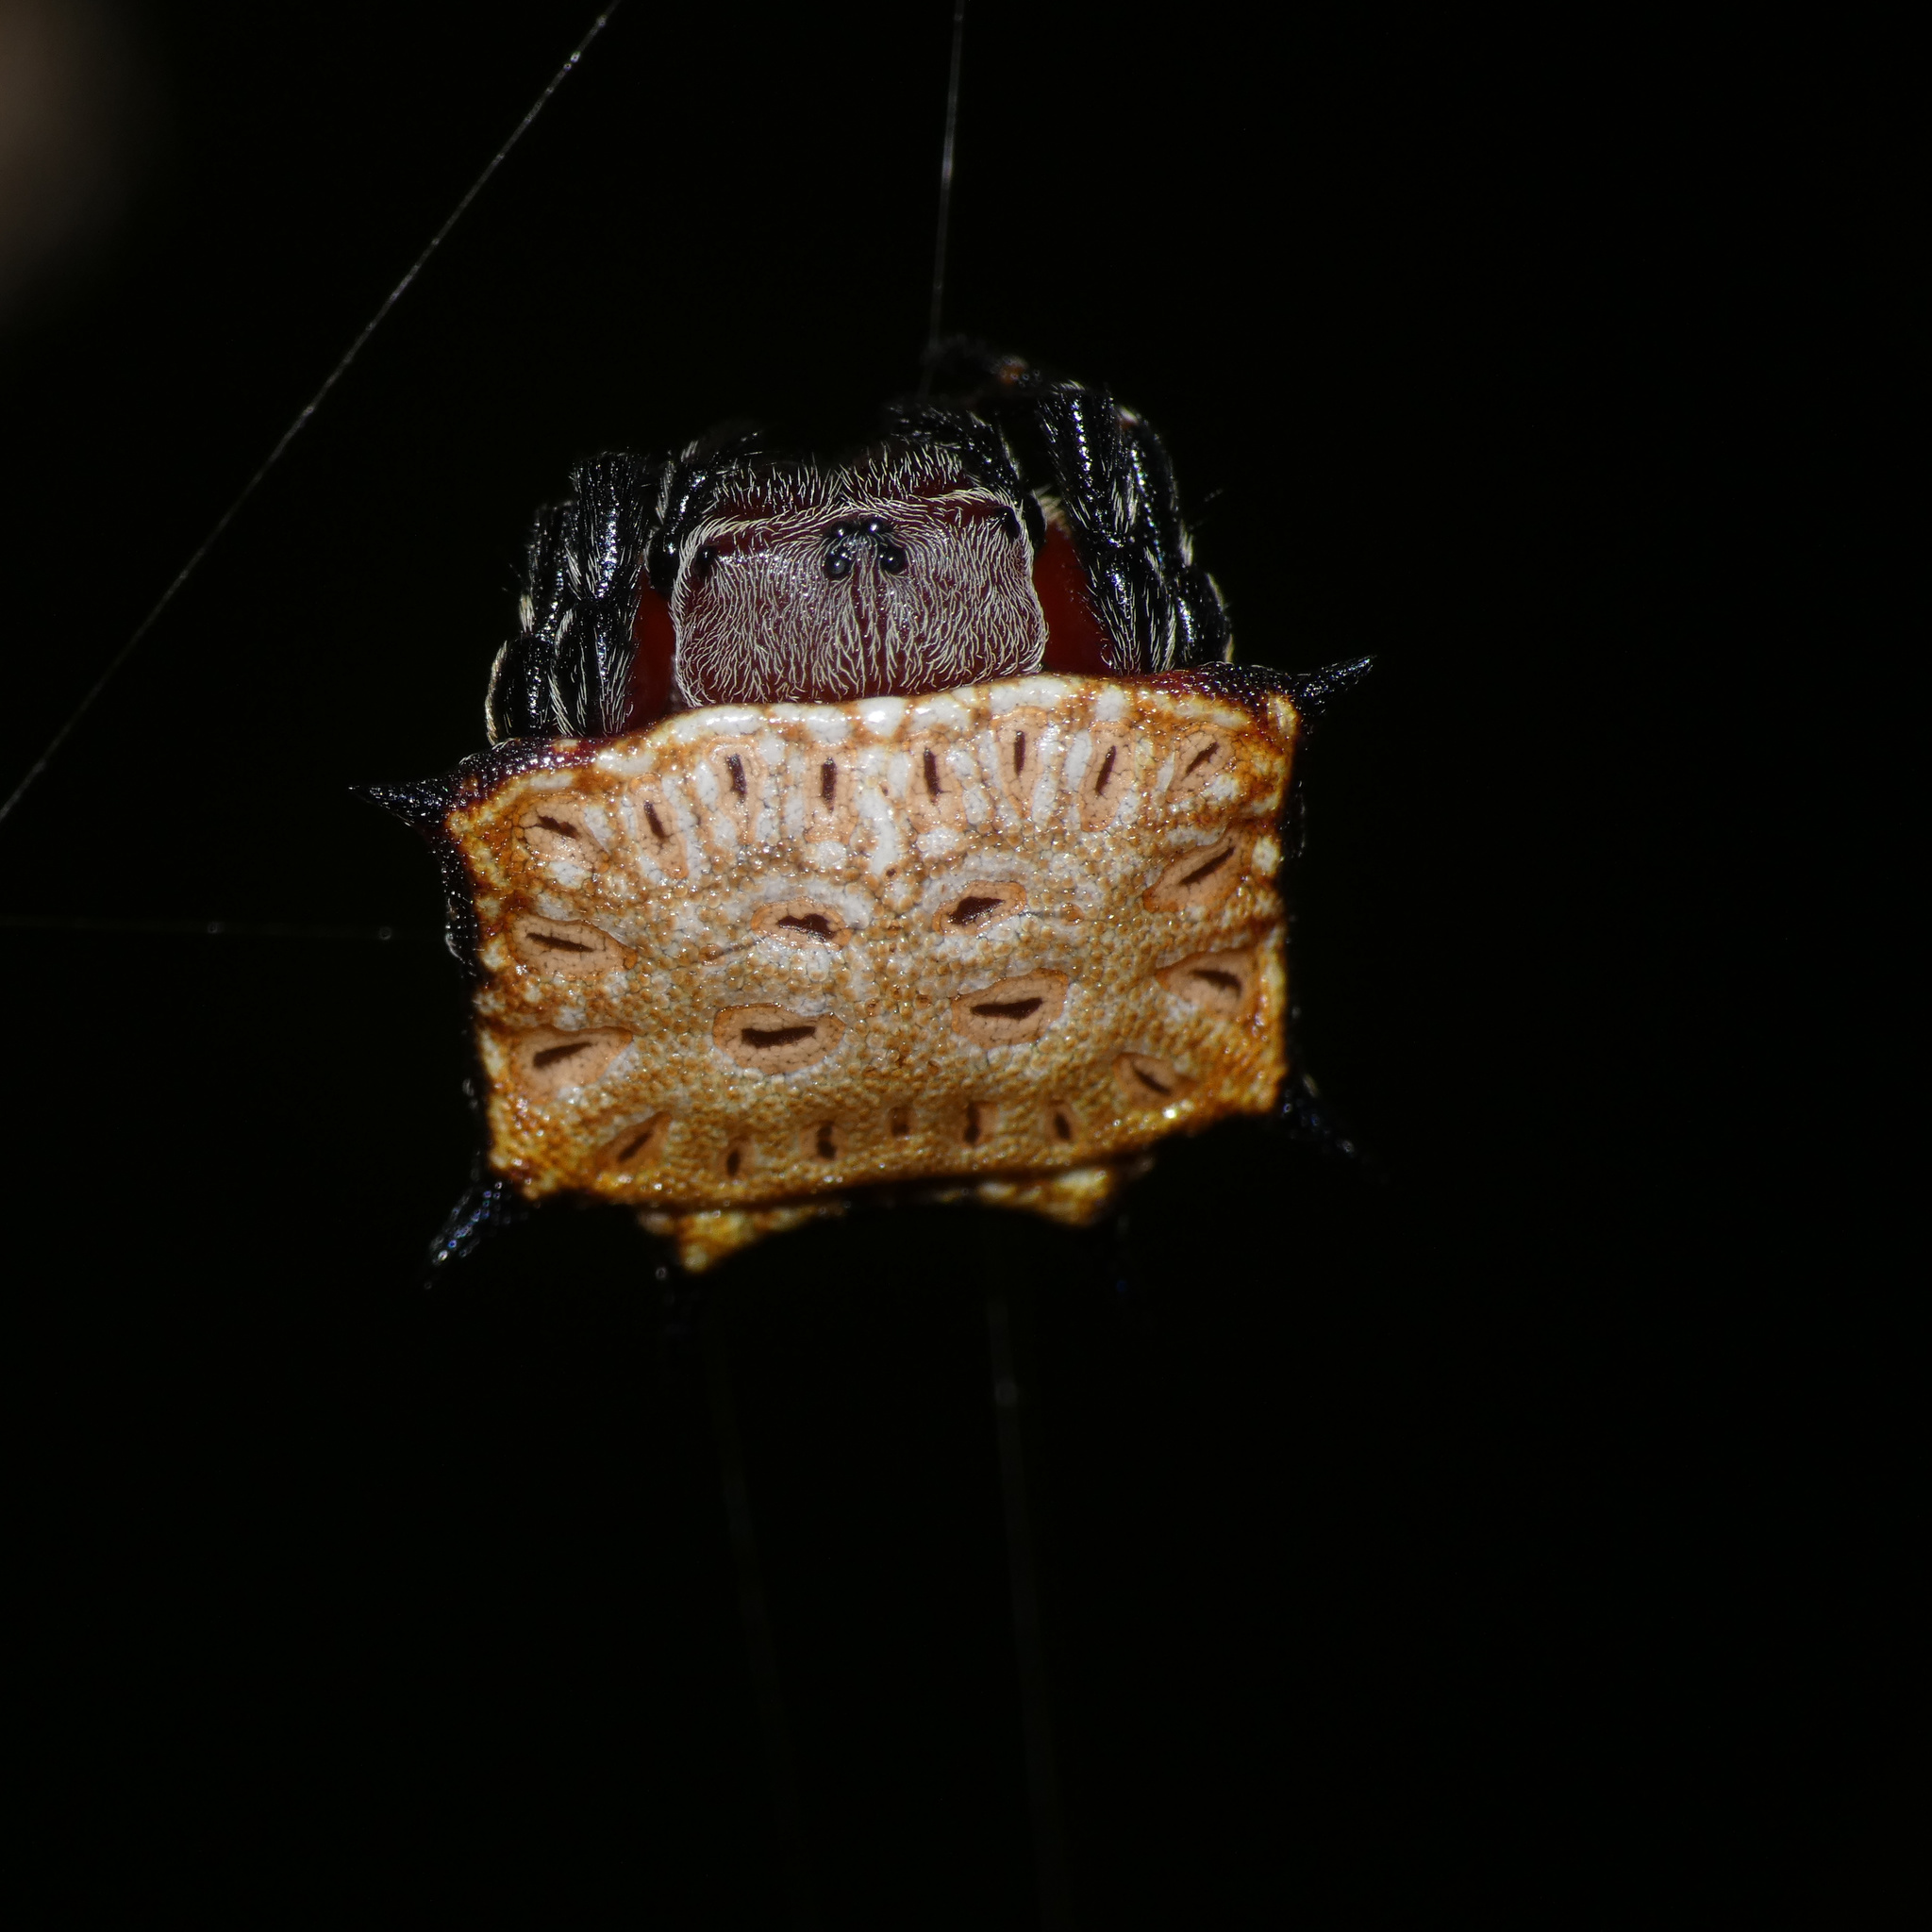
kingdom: Animalia
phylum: Arthropoda
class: Arachnida
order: Araneae
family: Araneidae
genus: Isoxya
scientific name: Isoxya tabulata
